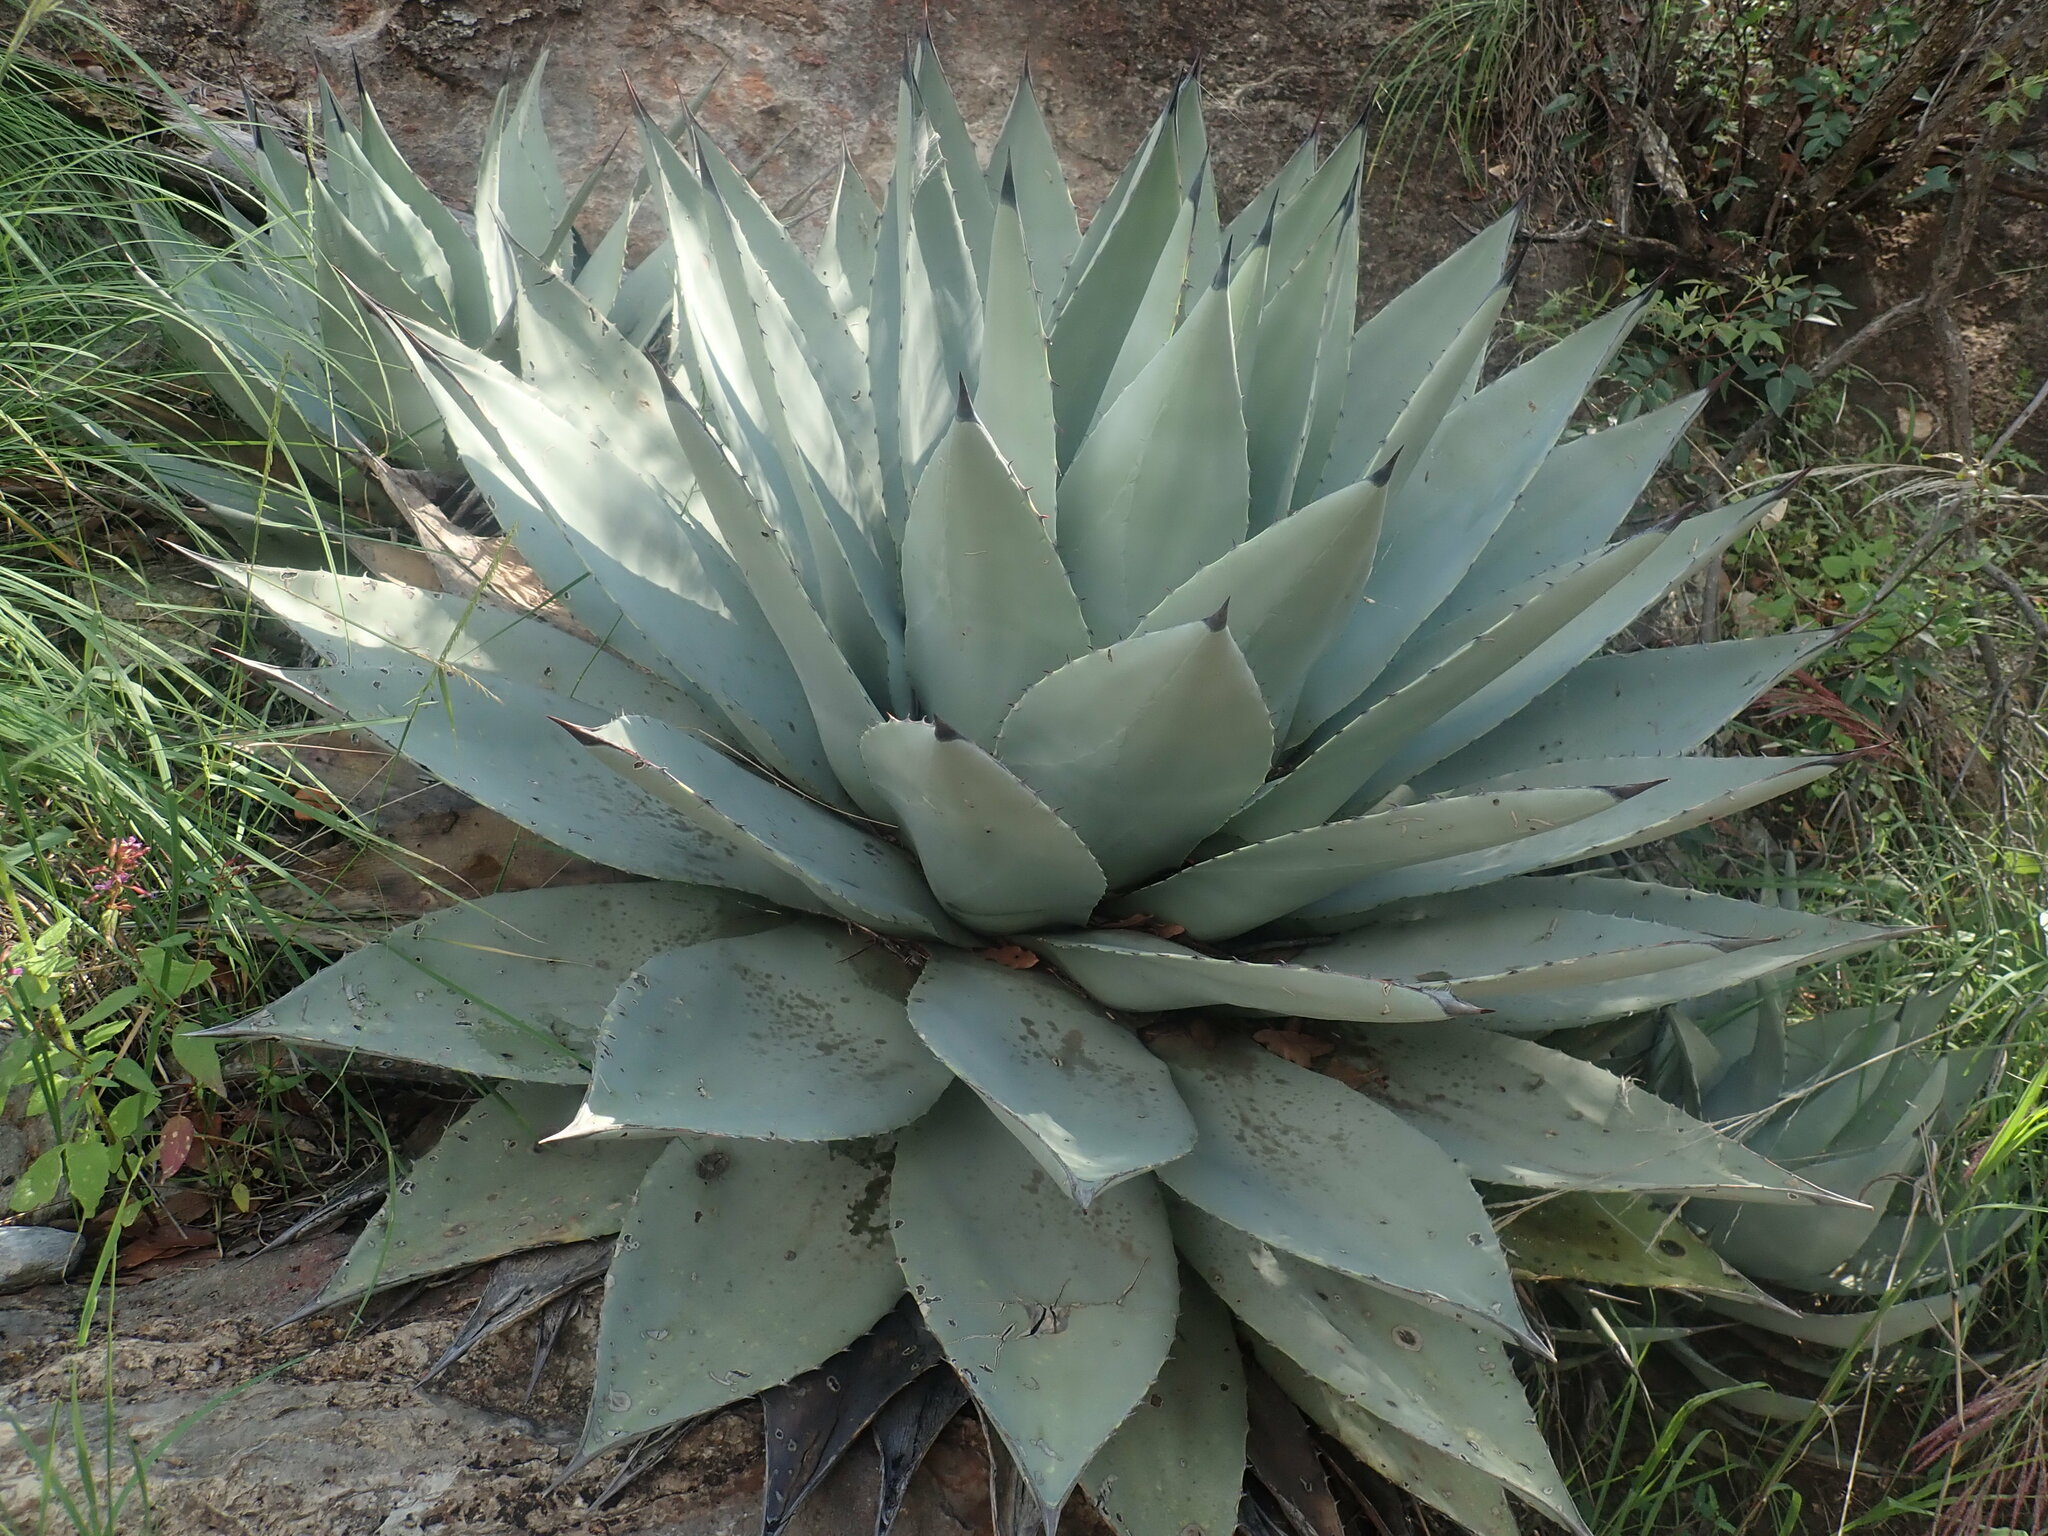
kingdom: Plantae
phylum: Tracheophyta
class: Liliopsida
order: Asparagales
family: Asparagaceae
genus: Agave
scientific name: Agave parryi
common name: Parry's agave
